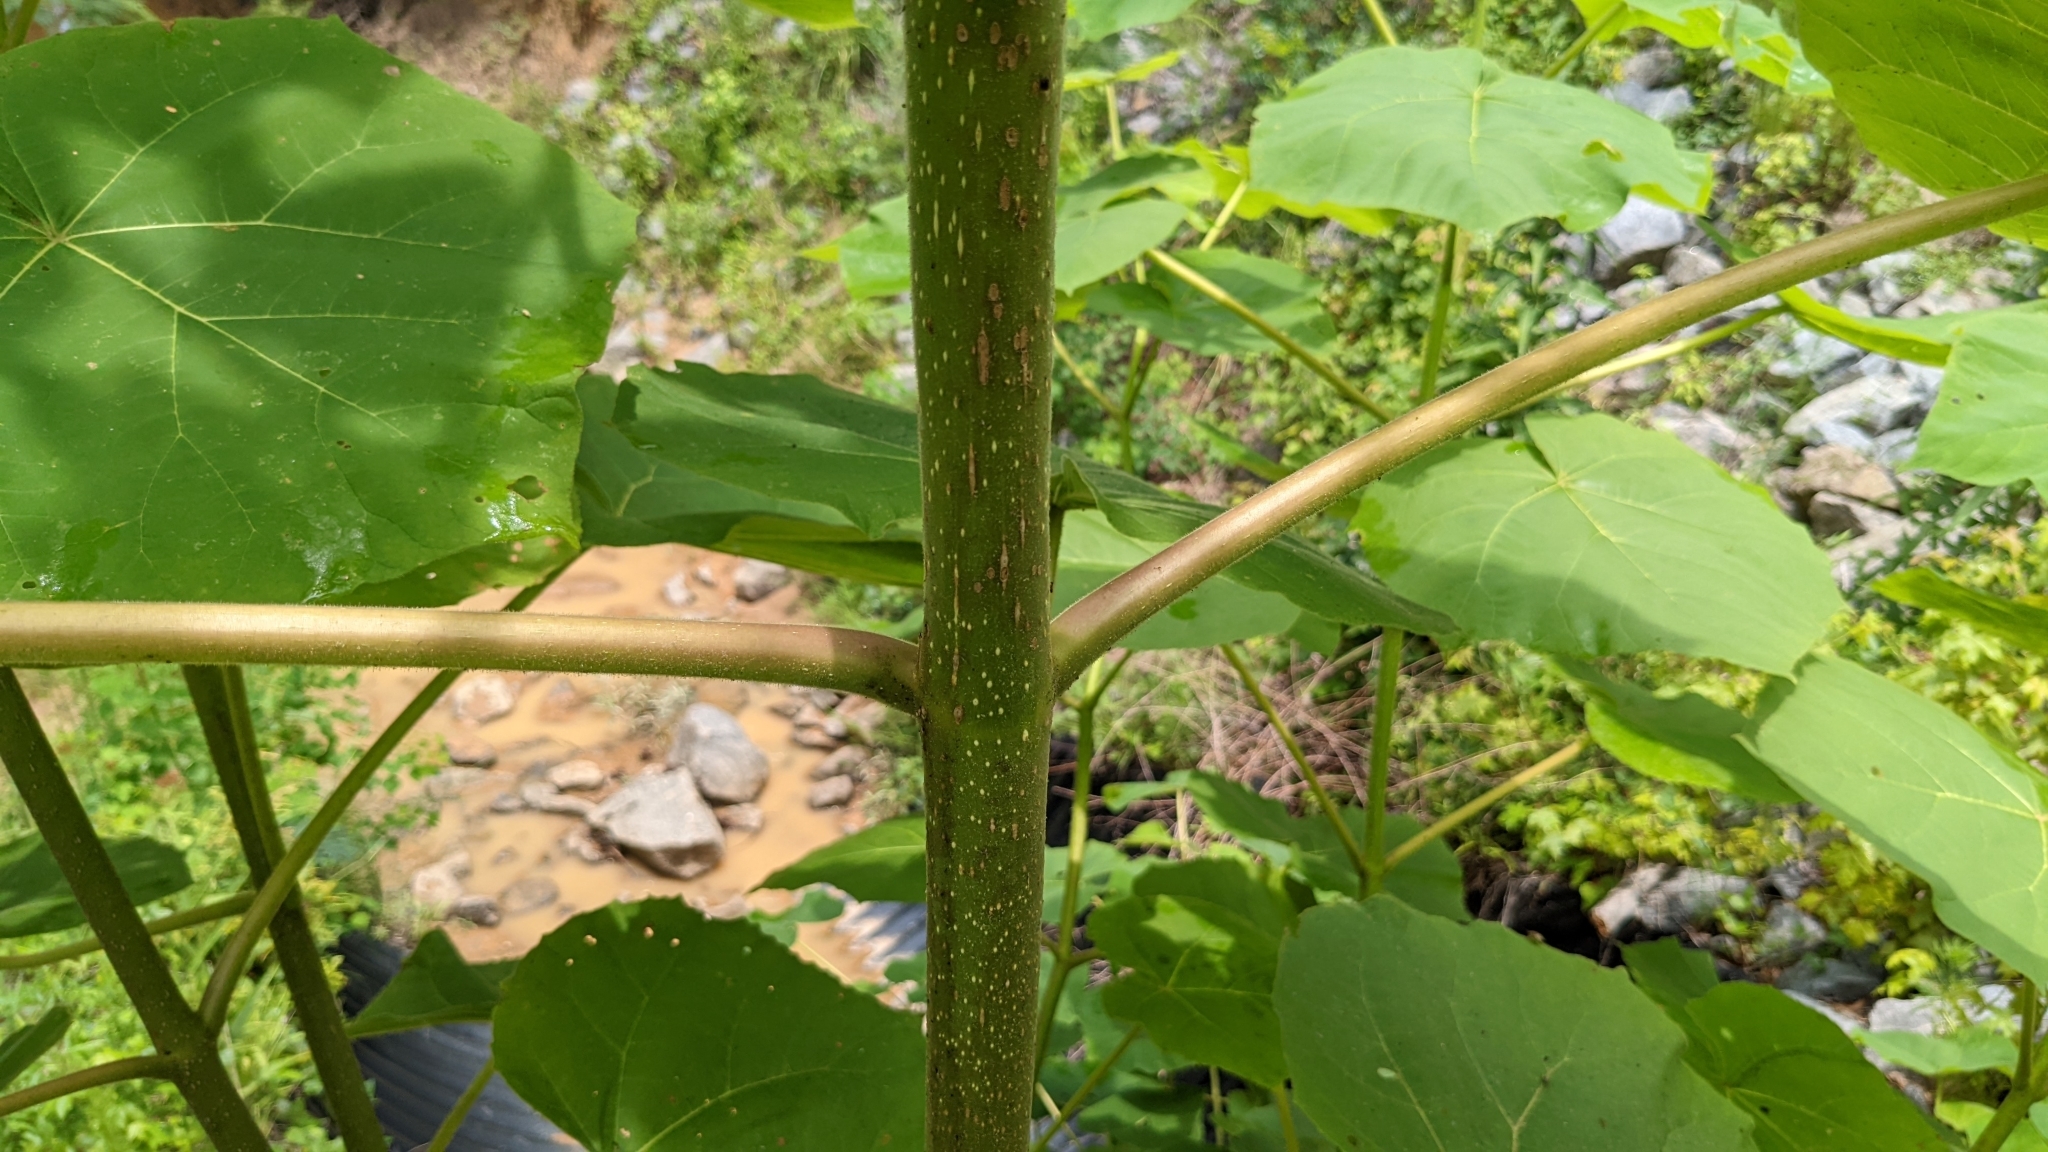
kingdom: Plantae
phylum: Tracheophyta
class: Magnoliopsida
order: Lamiales
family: Paulowniaceae
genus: Paulownia
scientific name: Paulownia tomentosa
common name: Foxglove-tree
